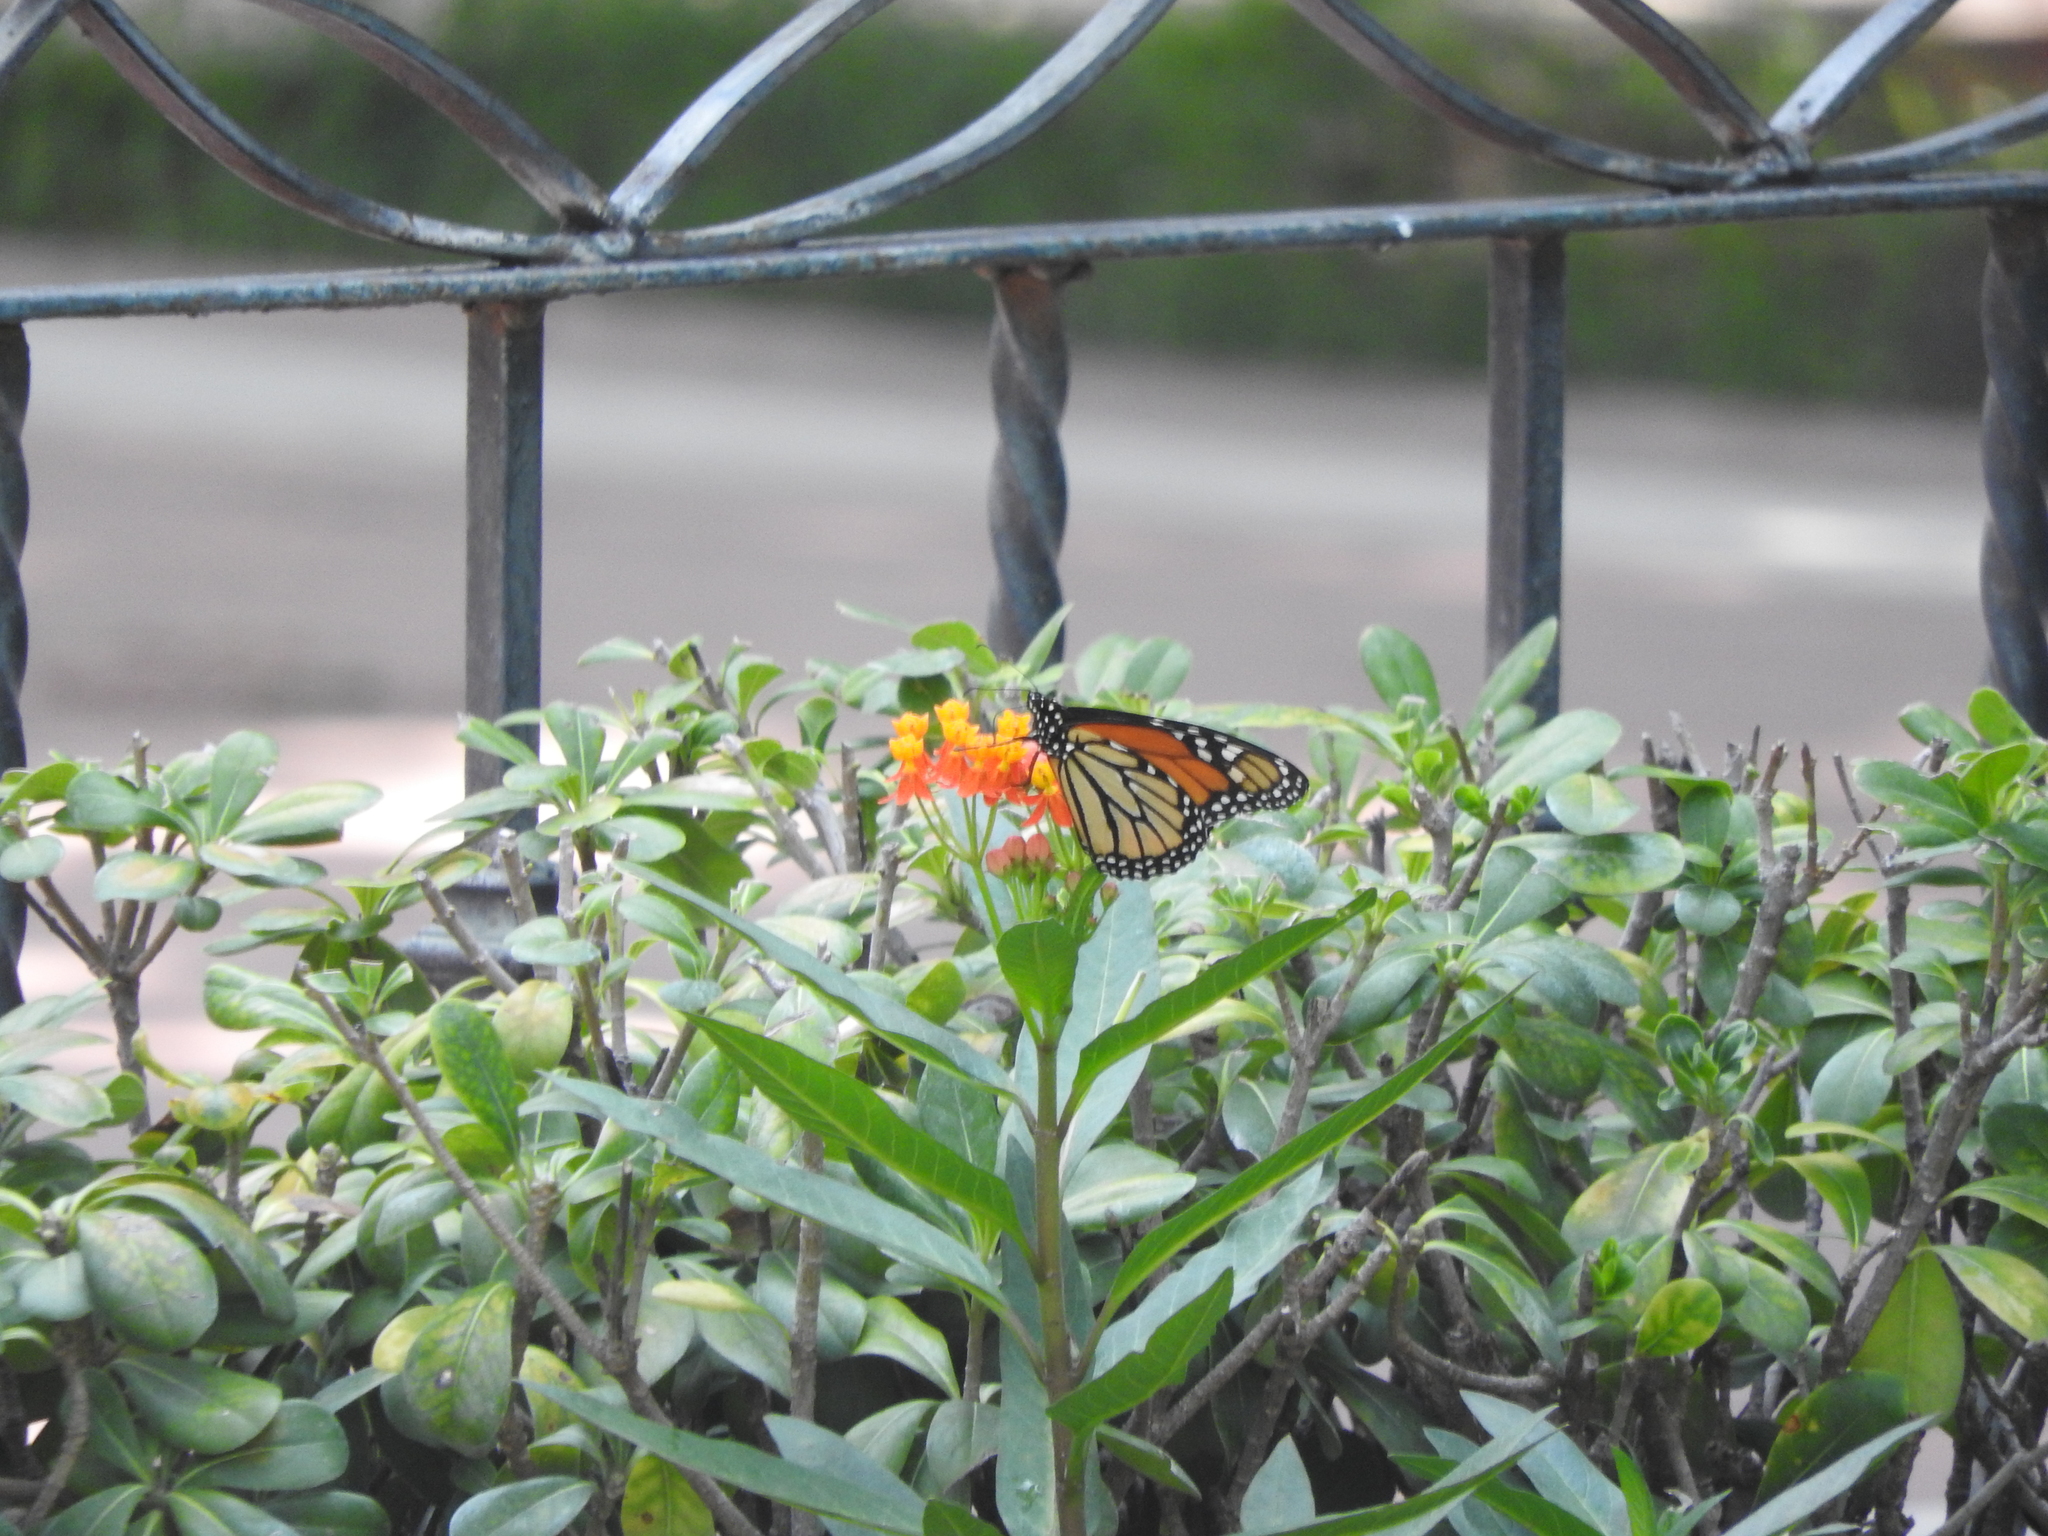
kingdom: Animalia
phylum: Arthropoda
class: Insecta
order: Lepidoptera
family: Nymphalidae
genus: Danaus
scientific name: Danaus plexippus
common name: Monarch
